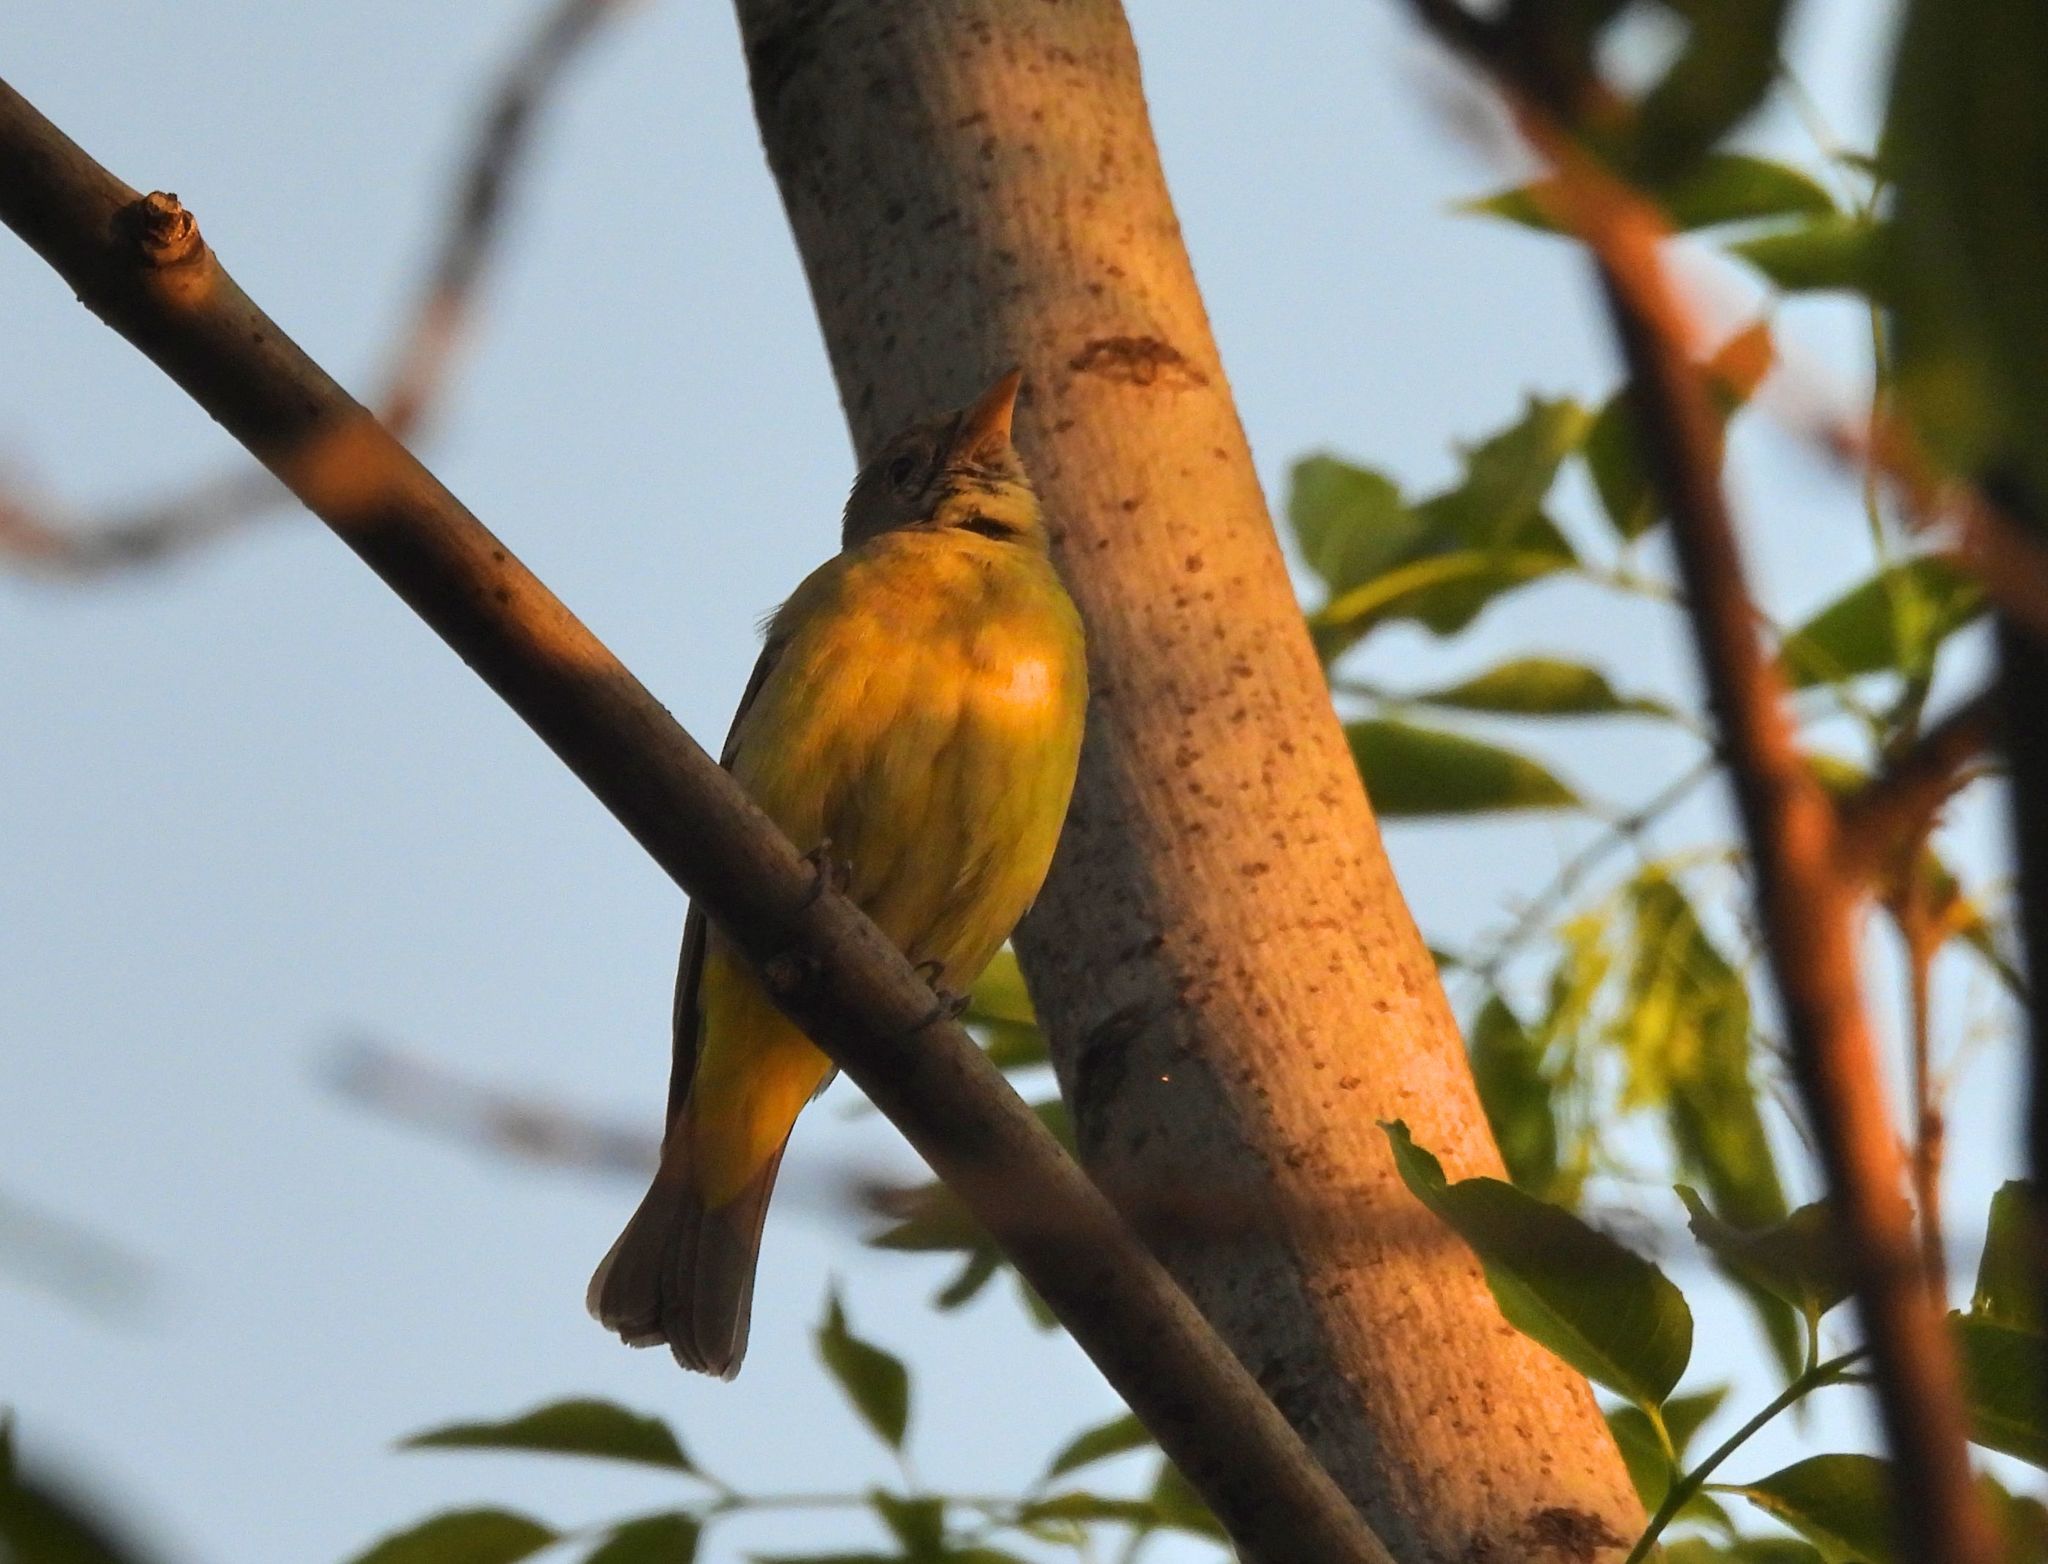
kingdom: Animalia
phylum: Chordata
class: Aves
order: Passeriformes
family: Cardinalidae
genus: Piranga
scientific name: Piranga ludoviciana
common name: Western tanager
